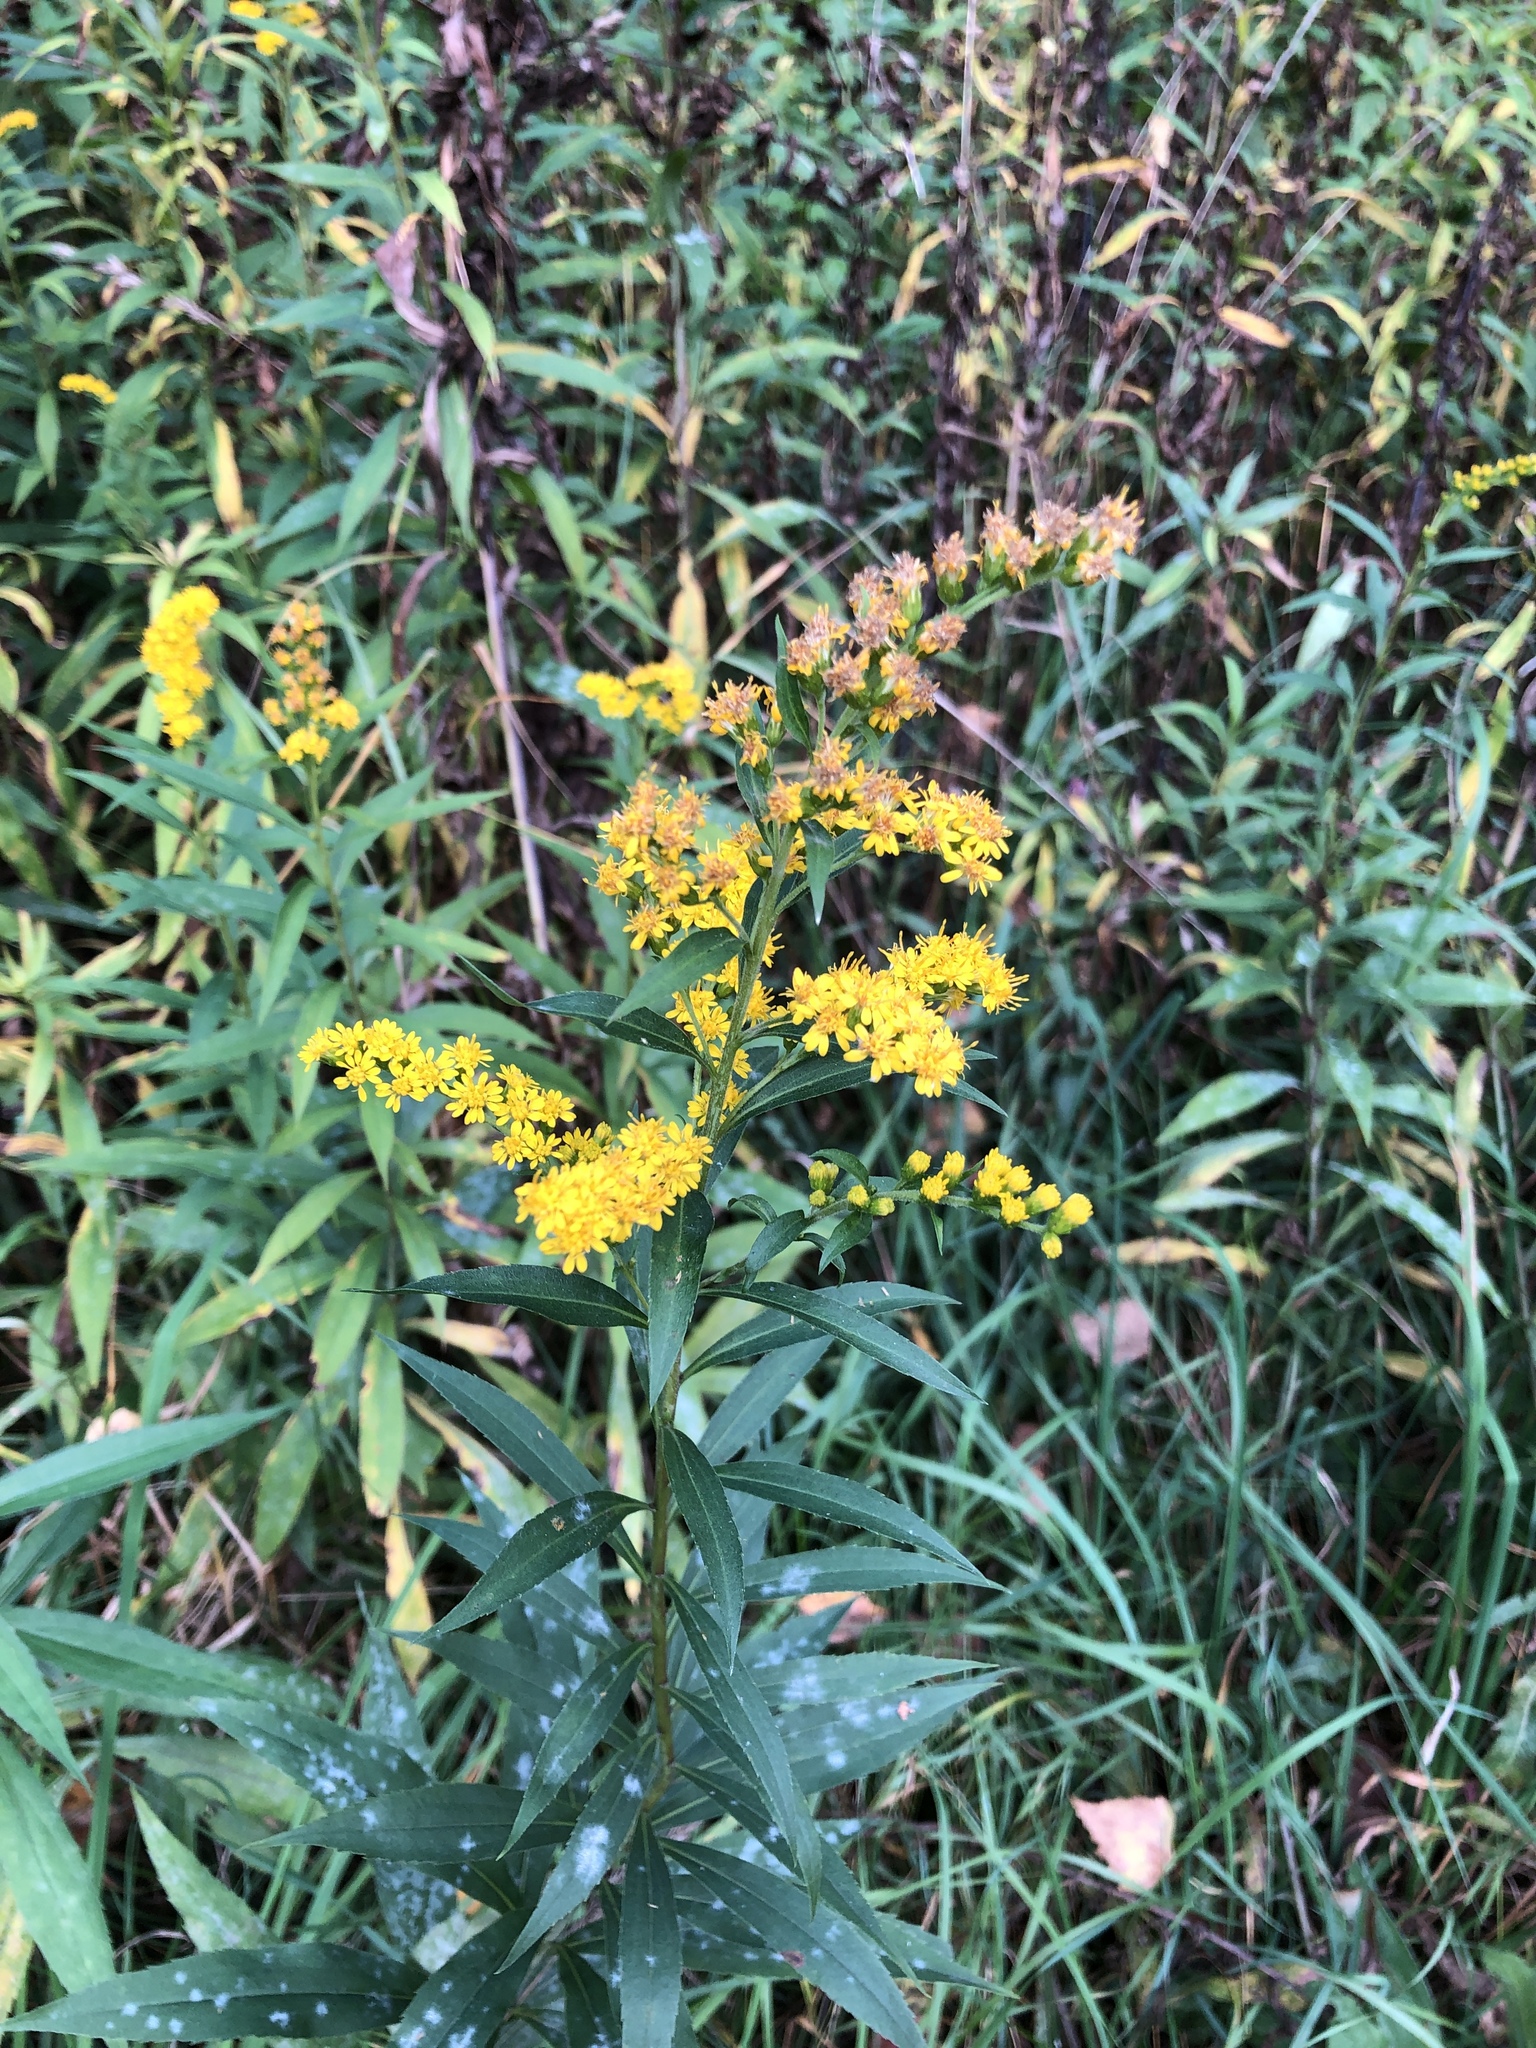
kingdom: Plantae
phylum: Tracheophyta
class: Magnoliopsida
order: Asterales
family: Asteraceae
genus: Solidago
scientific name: Solidago canadensis
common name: Canada goldenrod
